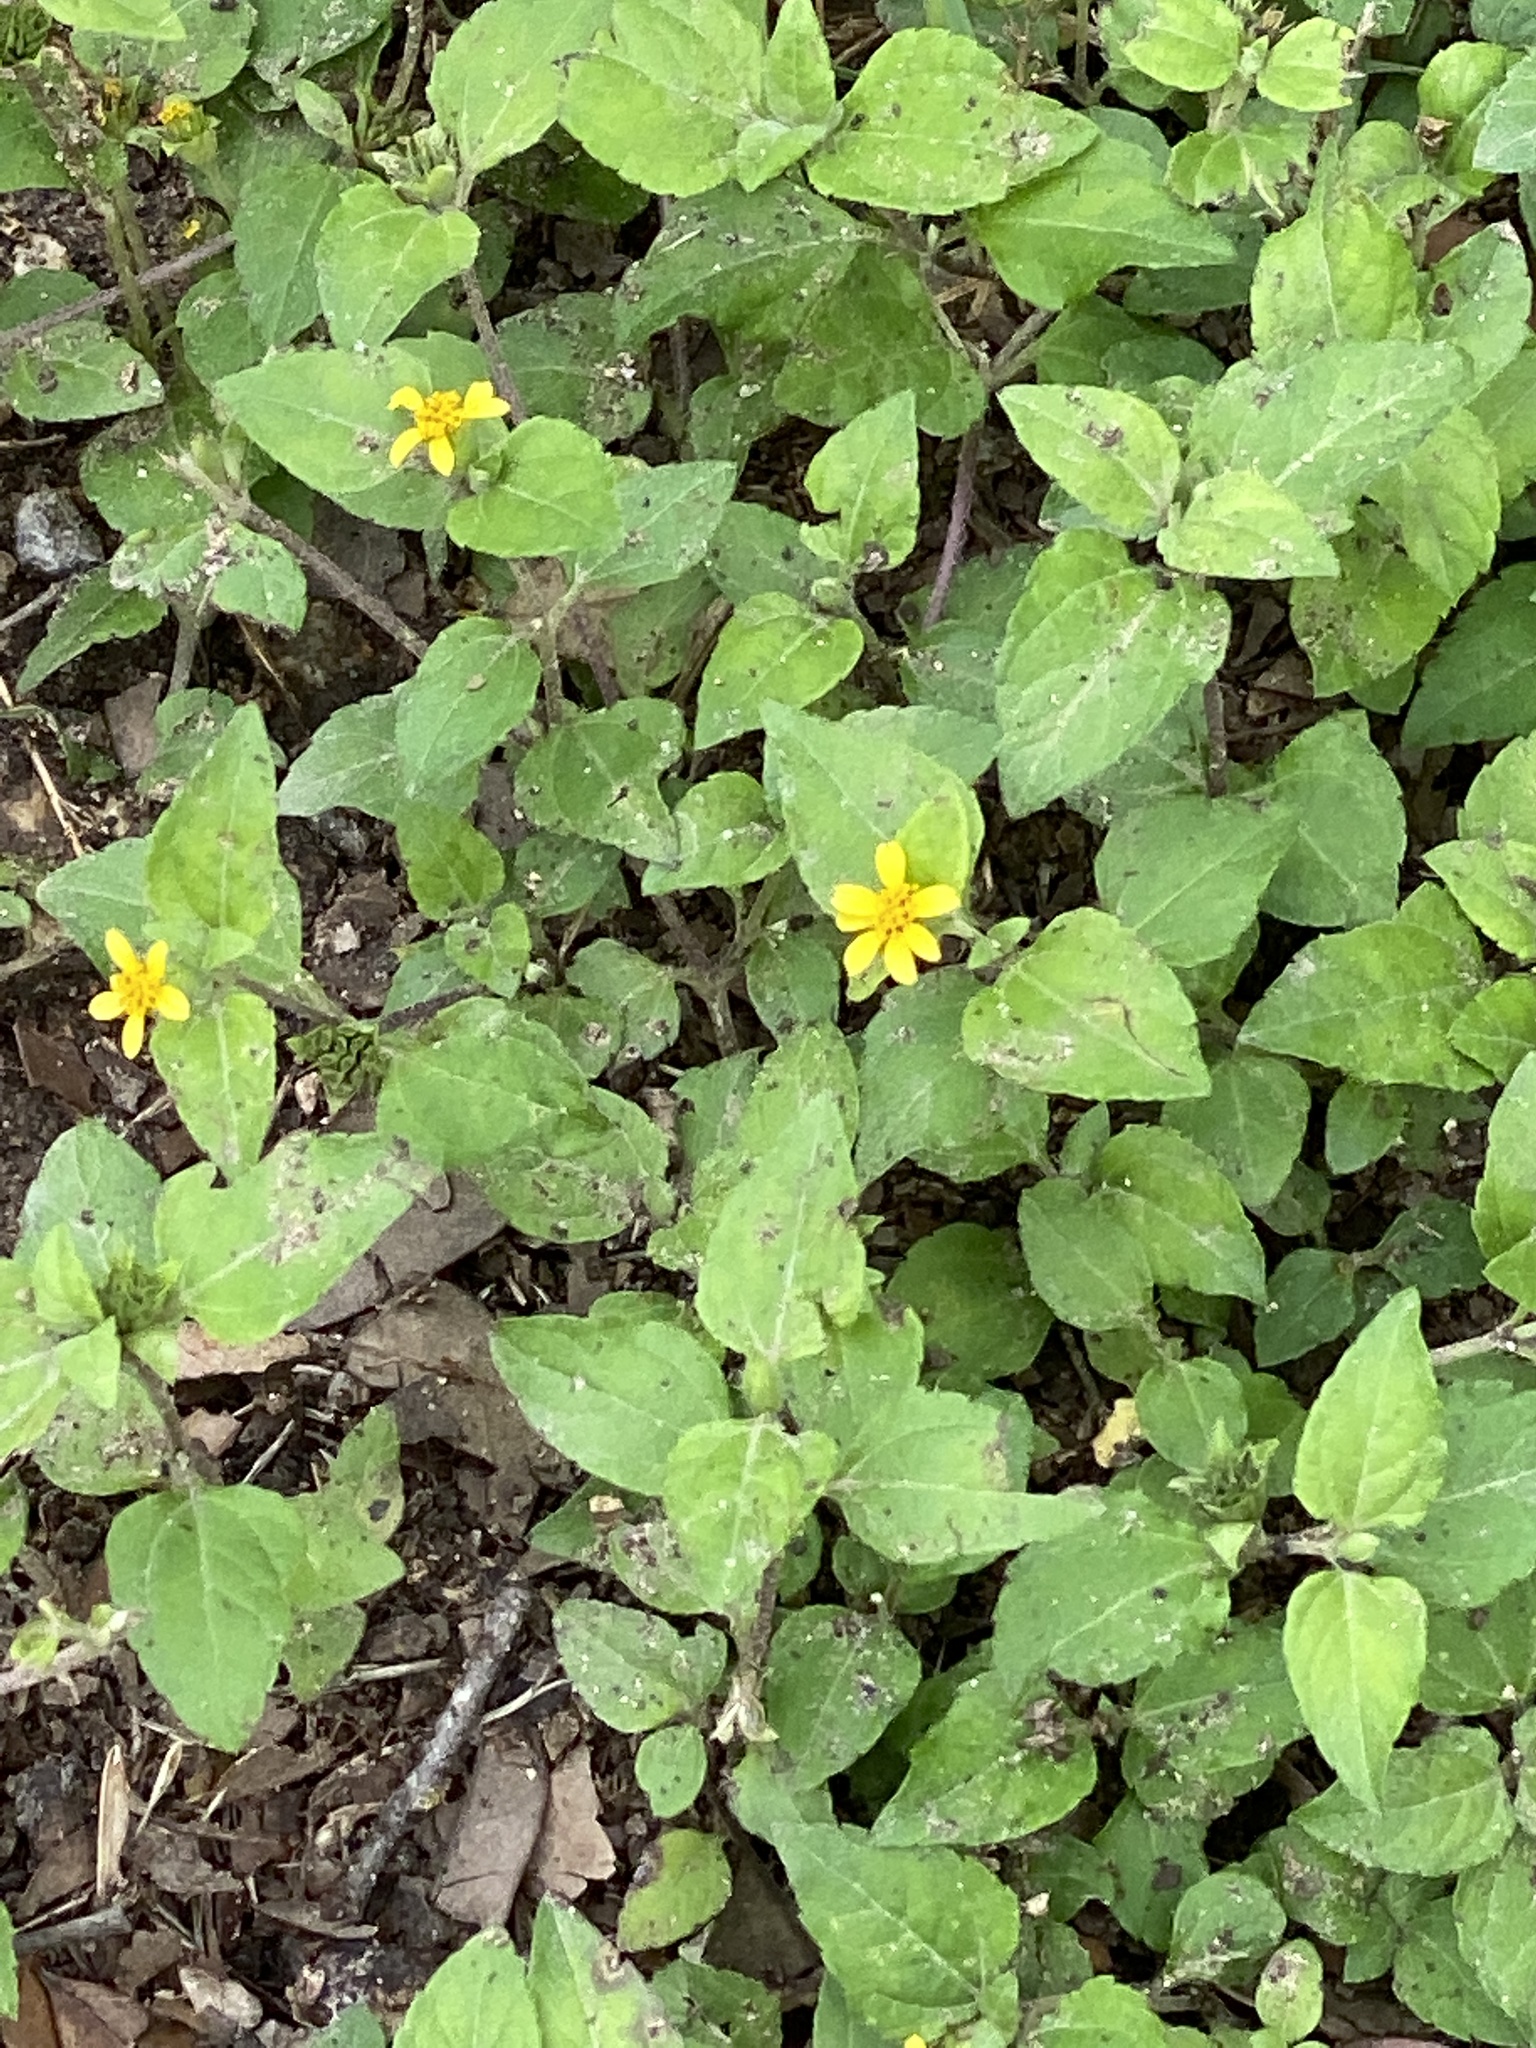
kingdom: Plantae
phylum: Tracheophyta
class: Magnoliopsida
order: Asterales
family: Asteraceae
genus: Calyptocarpus
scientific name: Calyptocarpus vialis
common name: Straggler daisy
